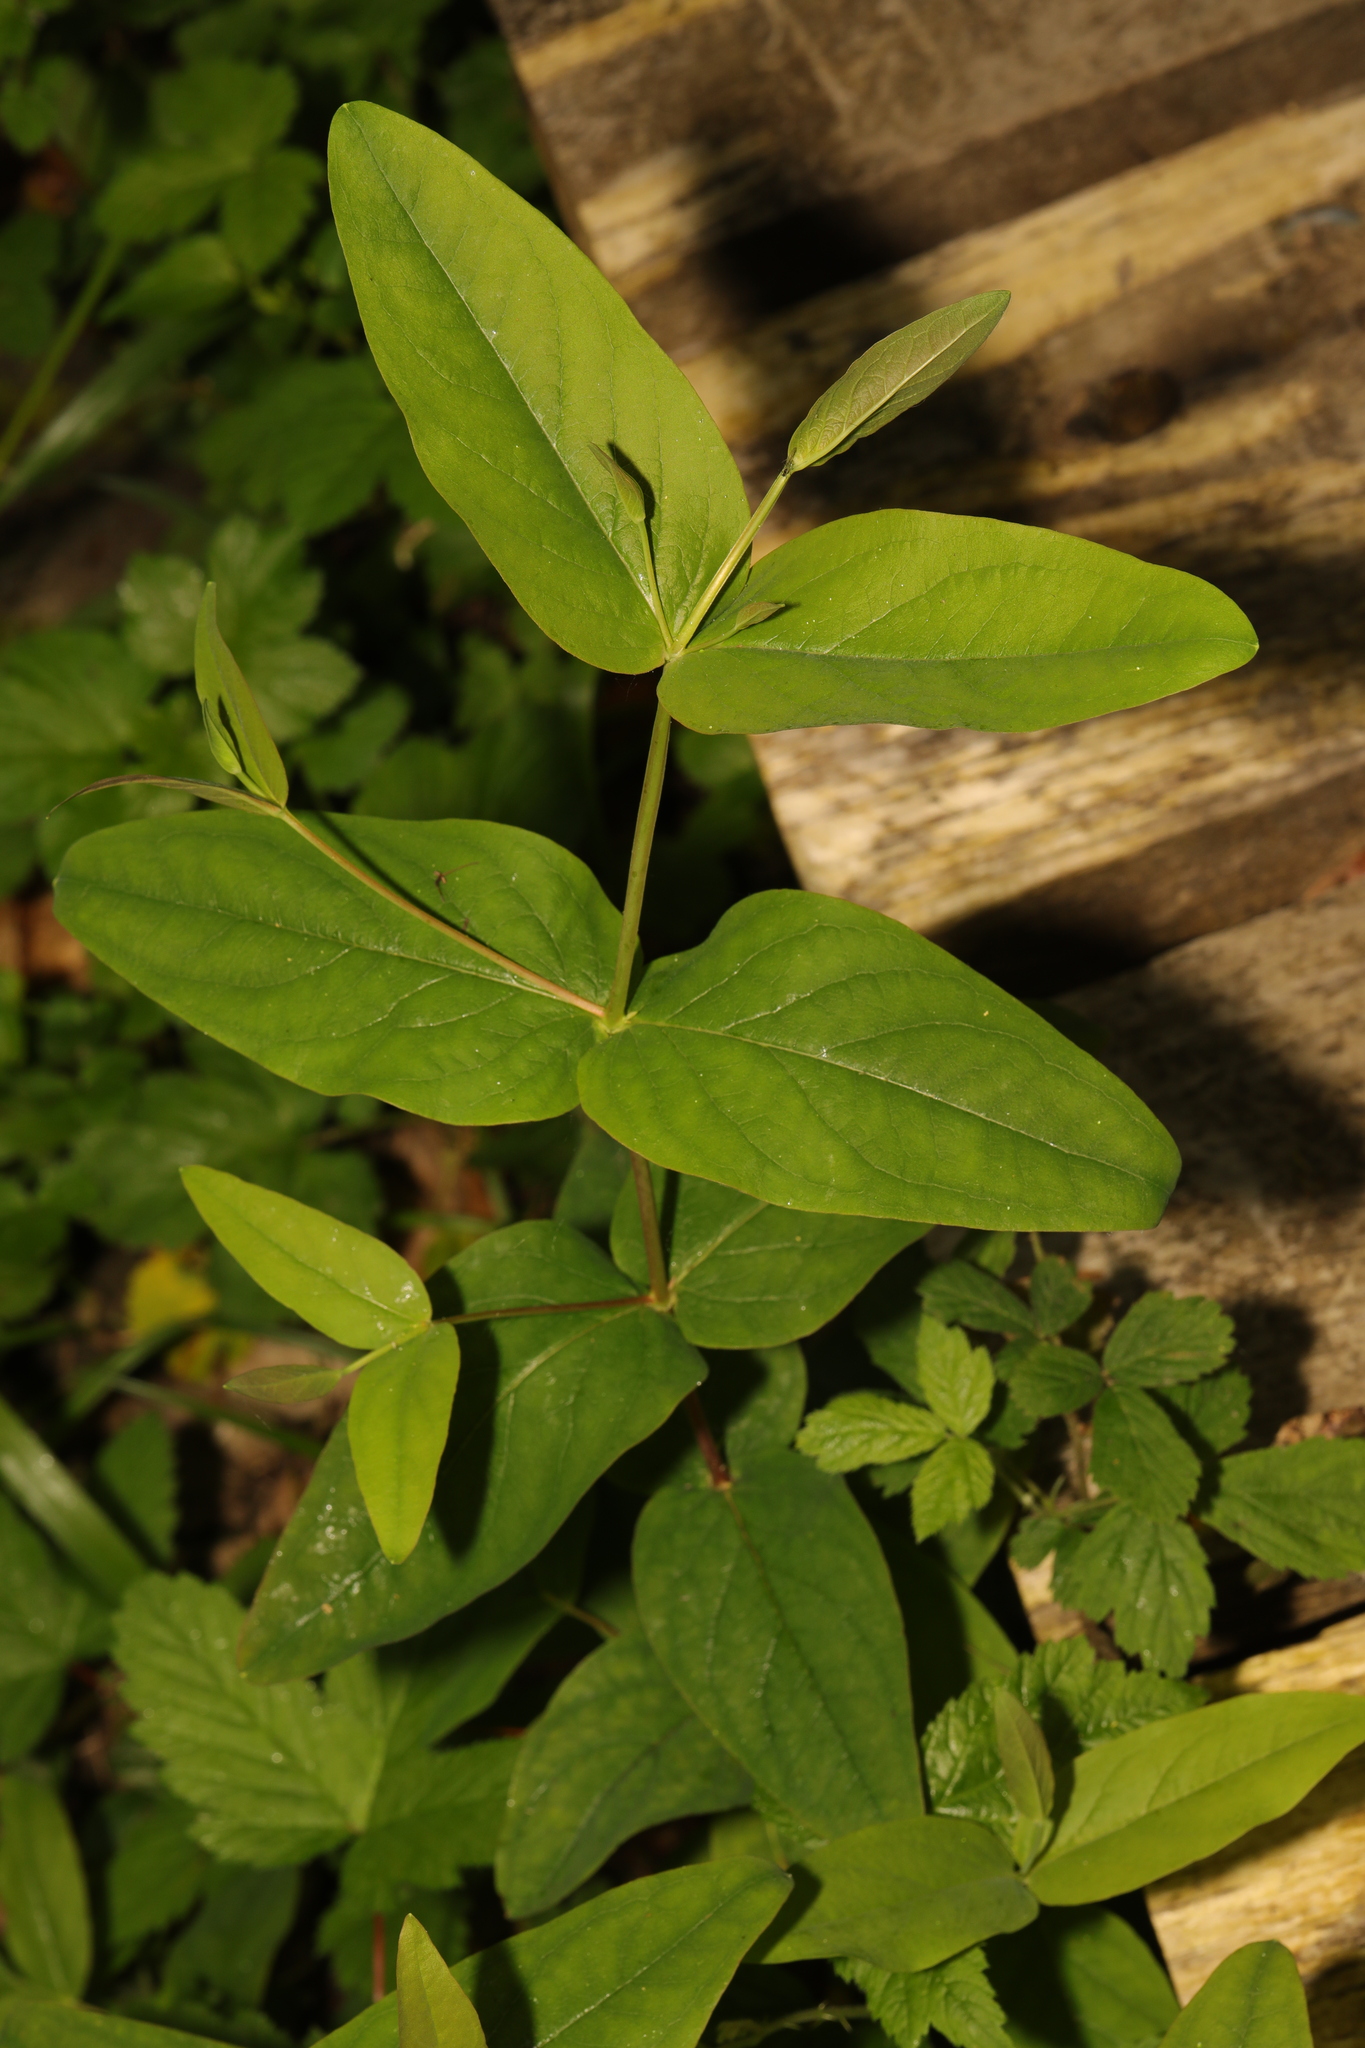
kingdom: Plantae
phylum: Tracheophyta
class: Magnoliopsida
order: Malpighiales
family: Hypericaceae
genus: Hypericum
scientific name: Hypericum androsaemum
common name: Sweet-amber
